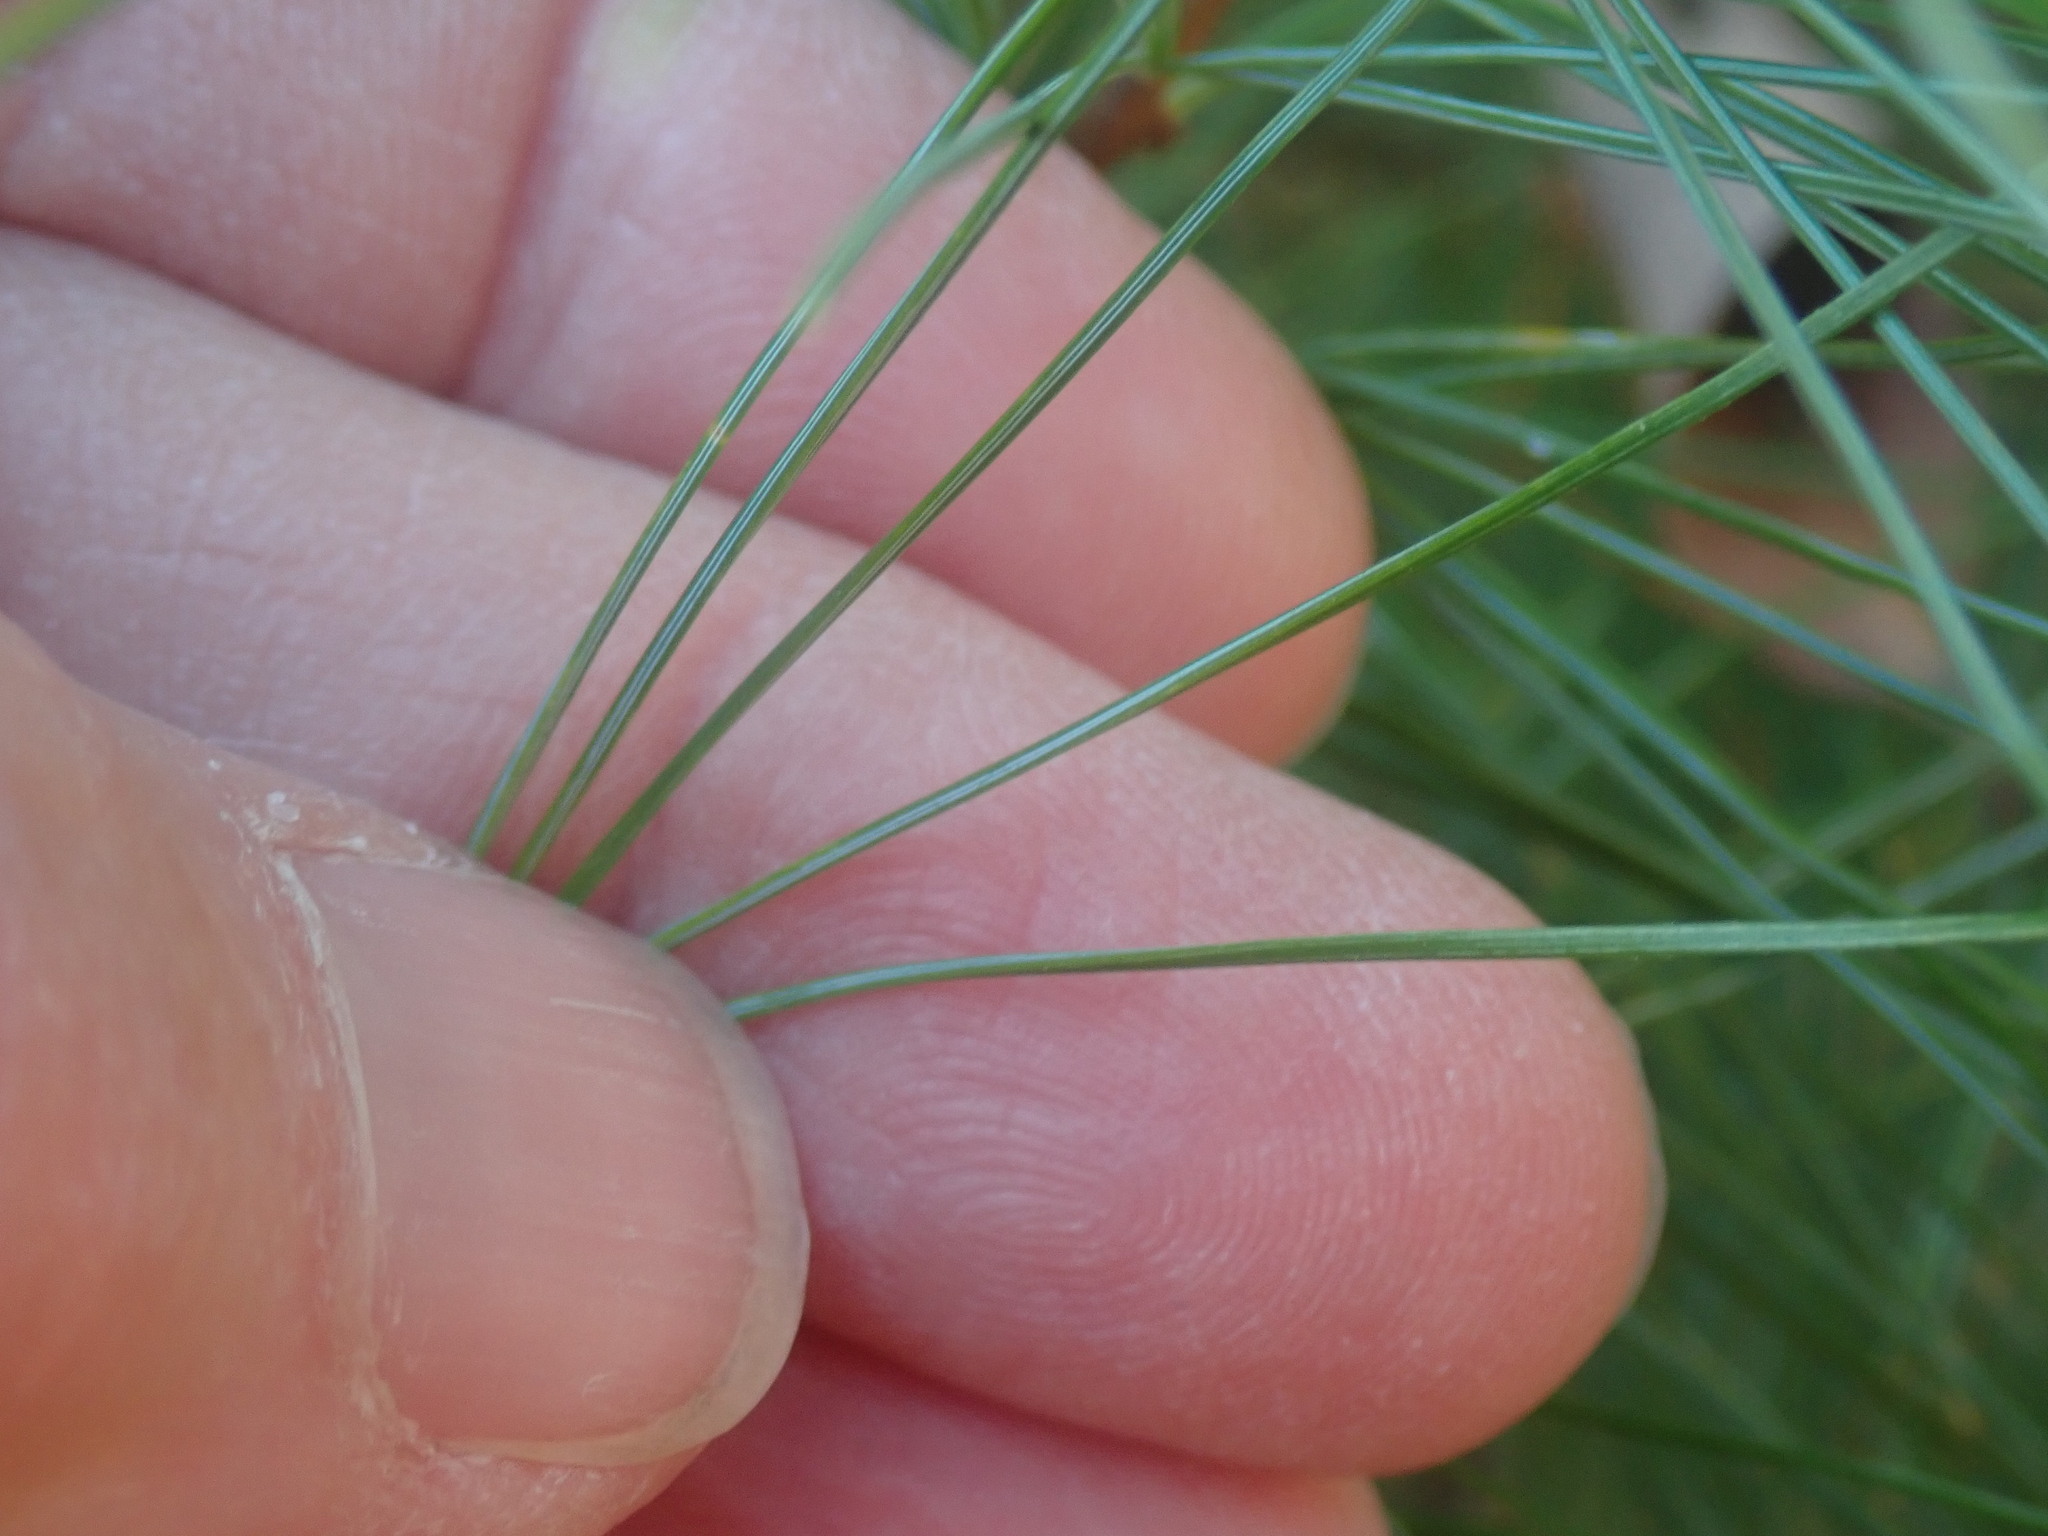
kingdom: Plantae
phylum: Tracheophyta
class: Pinopsida
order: Pinales
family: Pinaceae
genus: Pinus
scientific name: Pinus strobus
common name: Weymouth pine
